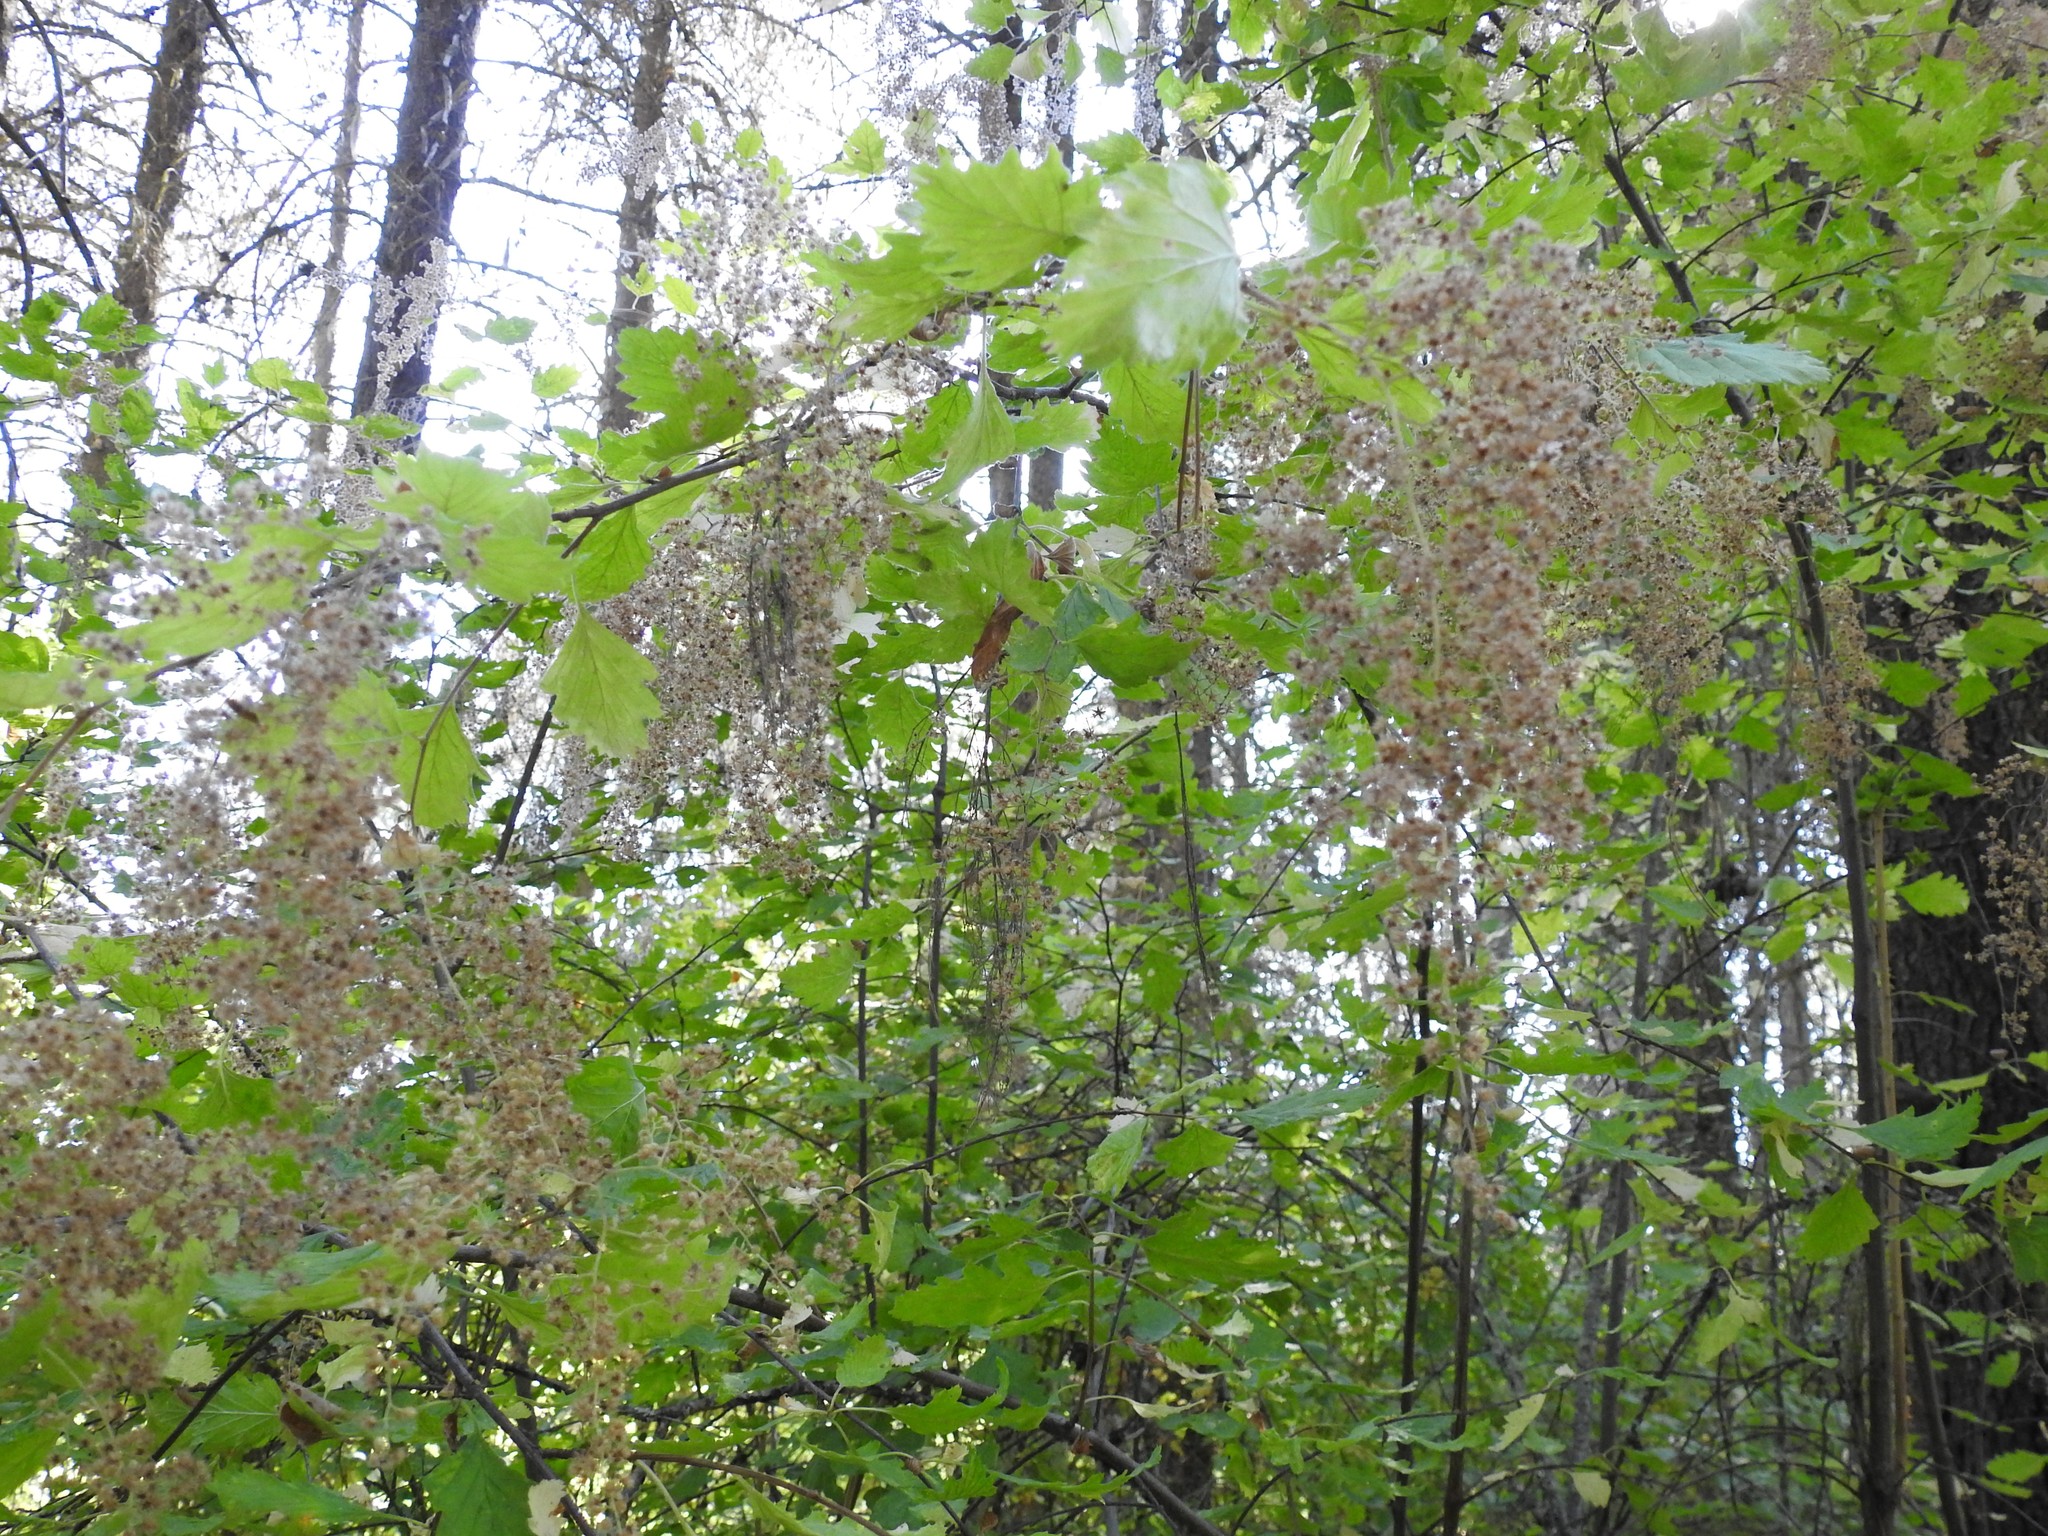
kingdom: Plantae
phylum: Tracheophyta
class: Magnoliopsida
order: Rosales
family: Rosaceae
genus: Holodiscus
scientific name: Holodiscus discolor
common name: Oceanspray
